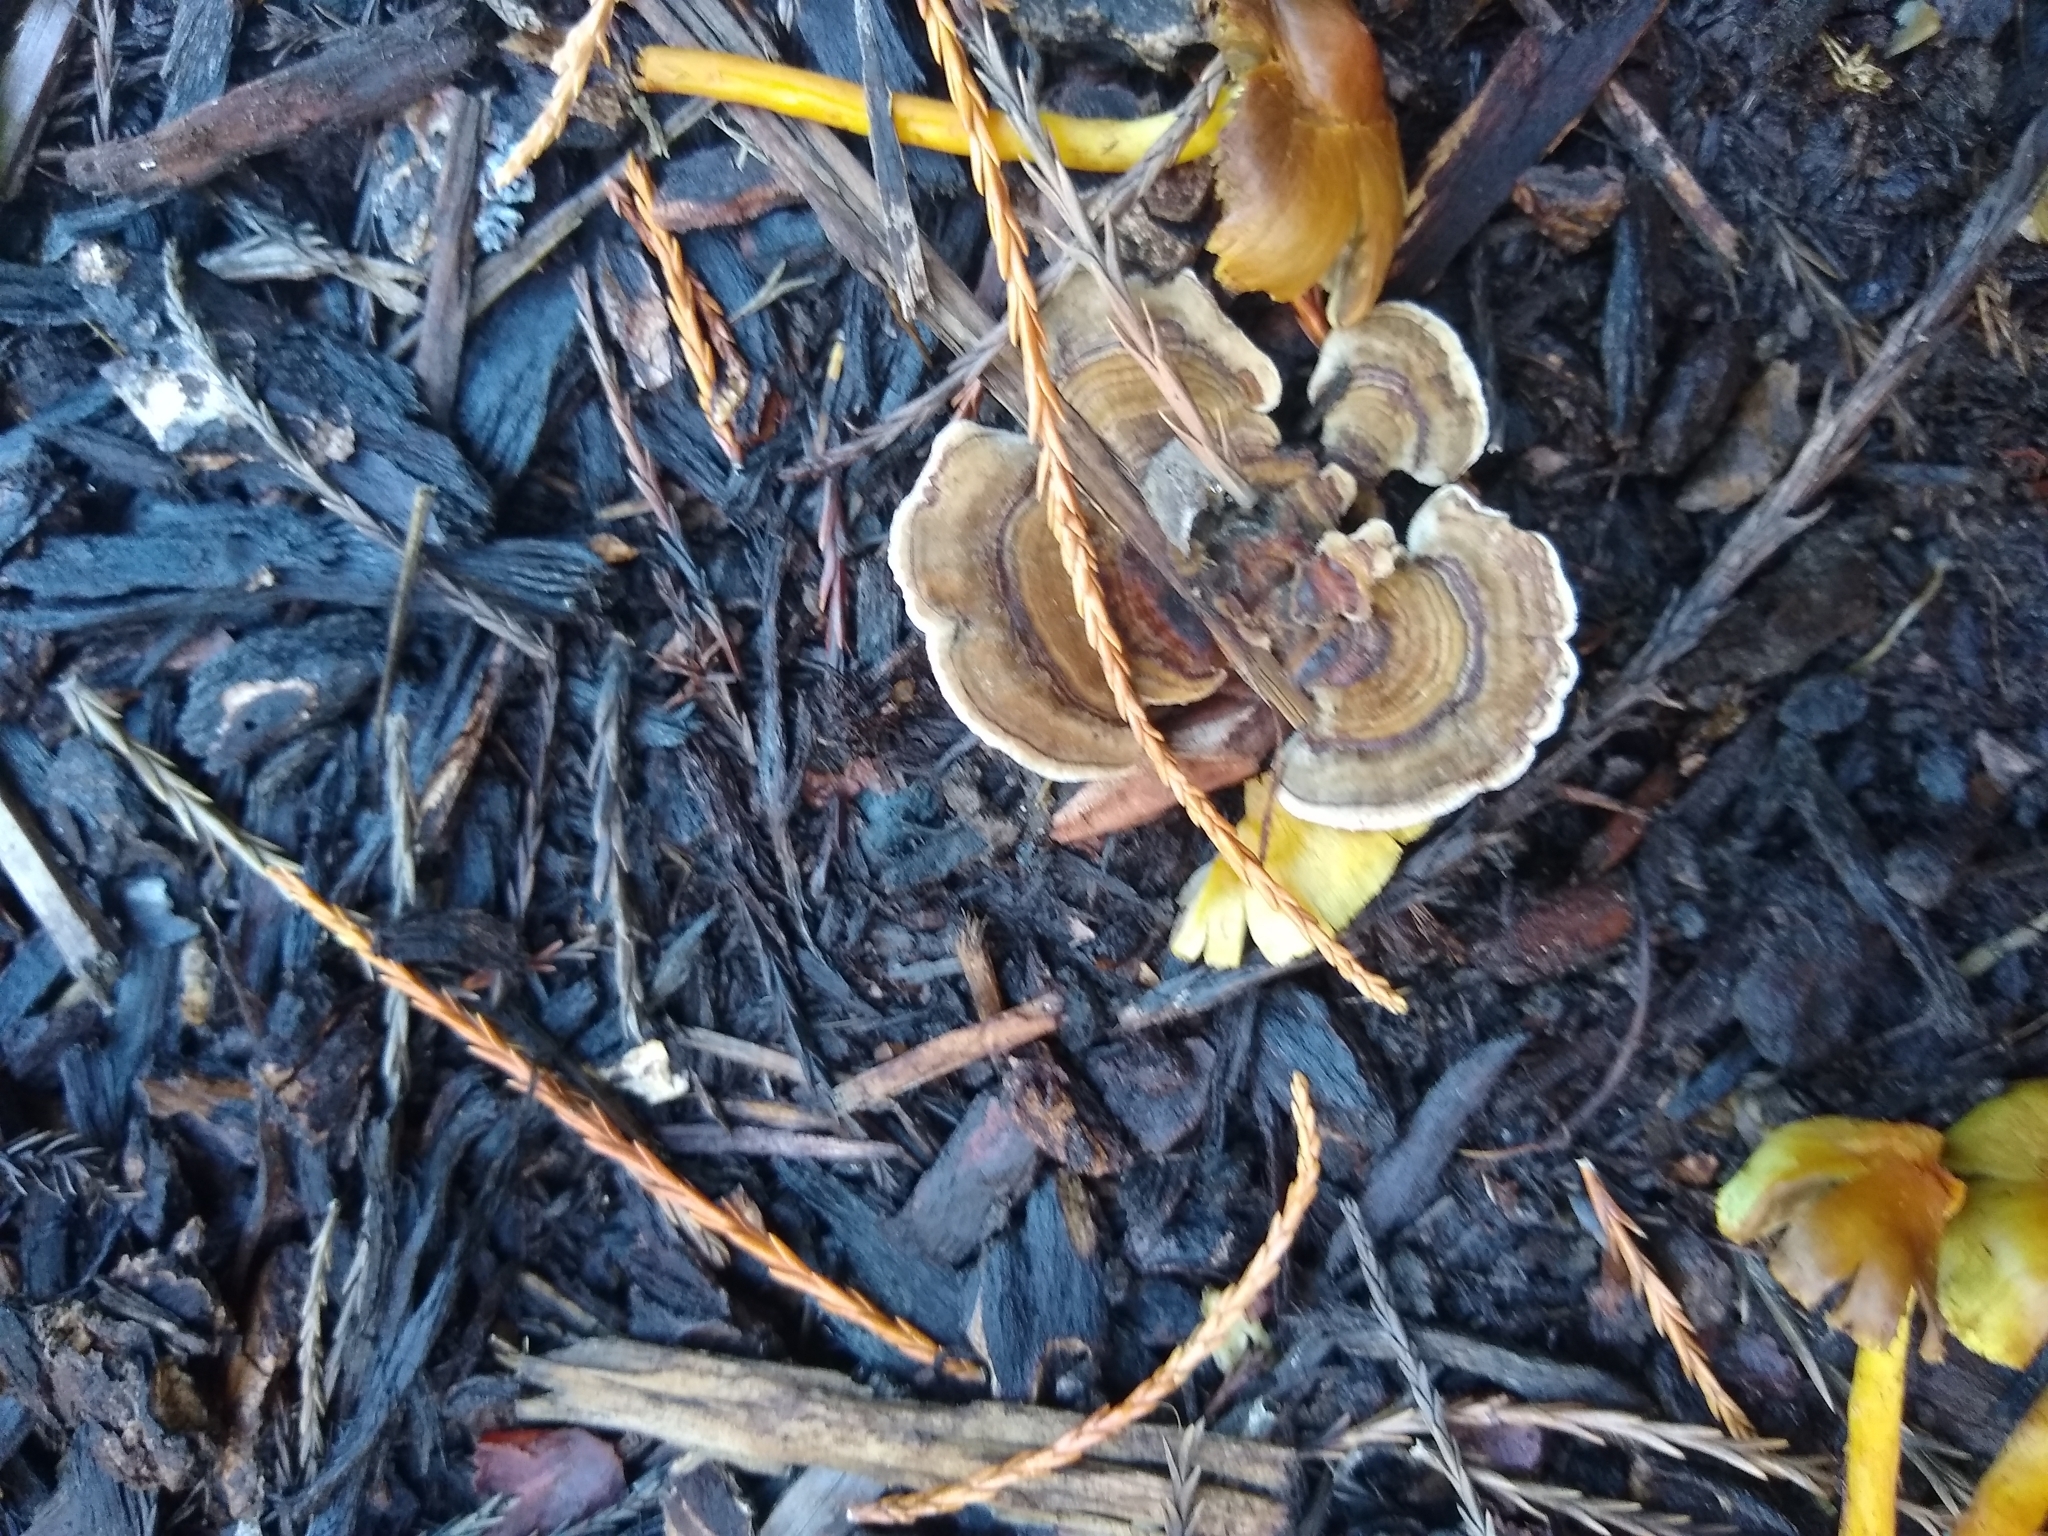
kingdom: Fungi
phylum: Basidiomycota
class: Agaricomycetes
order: Polyporales
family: Polyporaceae
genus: Trametes
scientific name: Trametes versicolor
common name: Turkeytail
